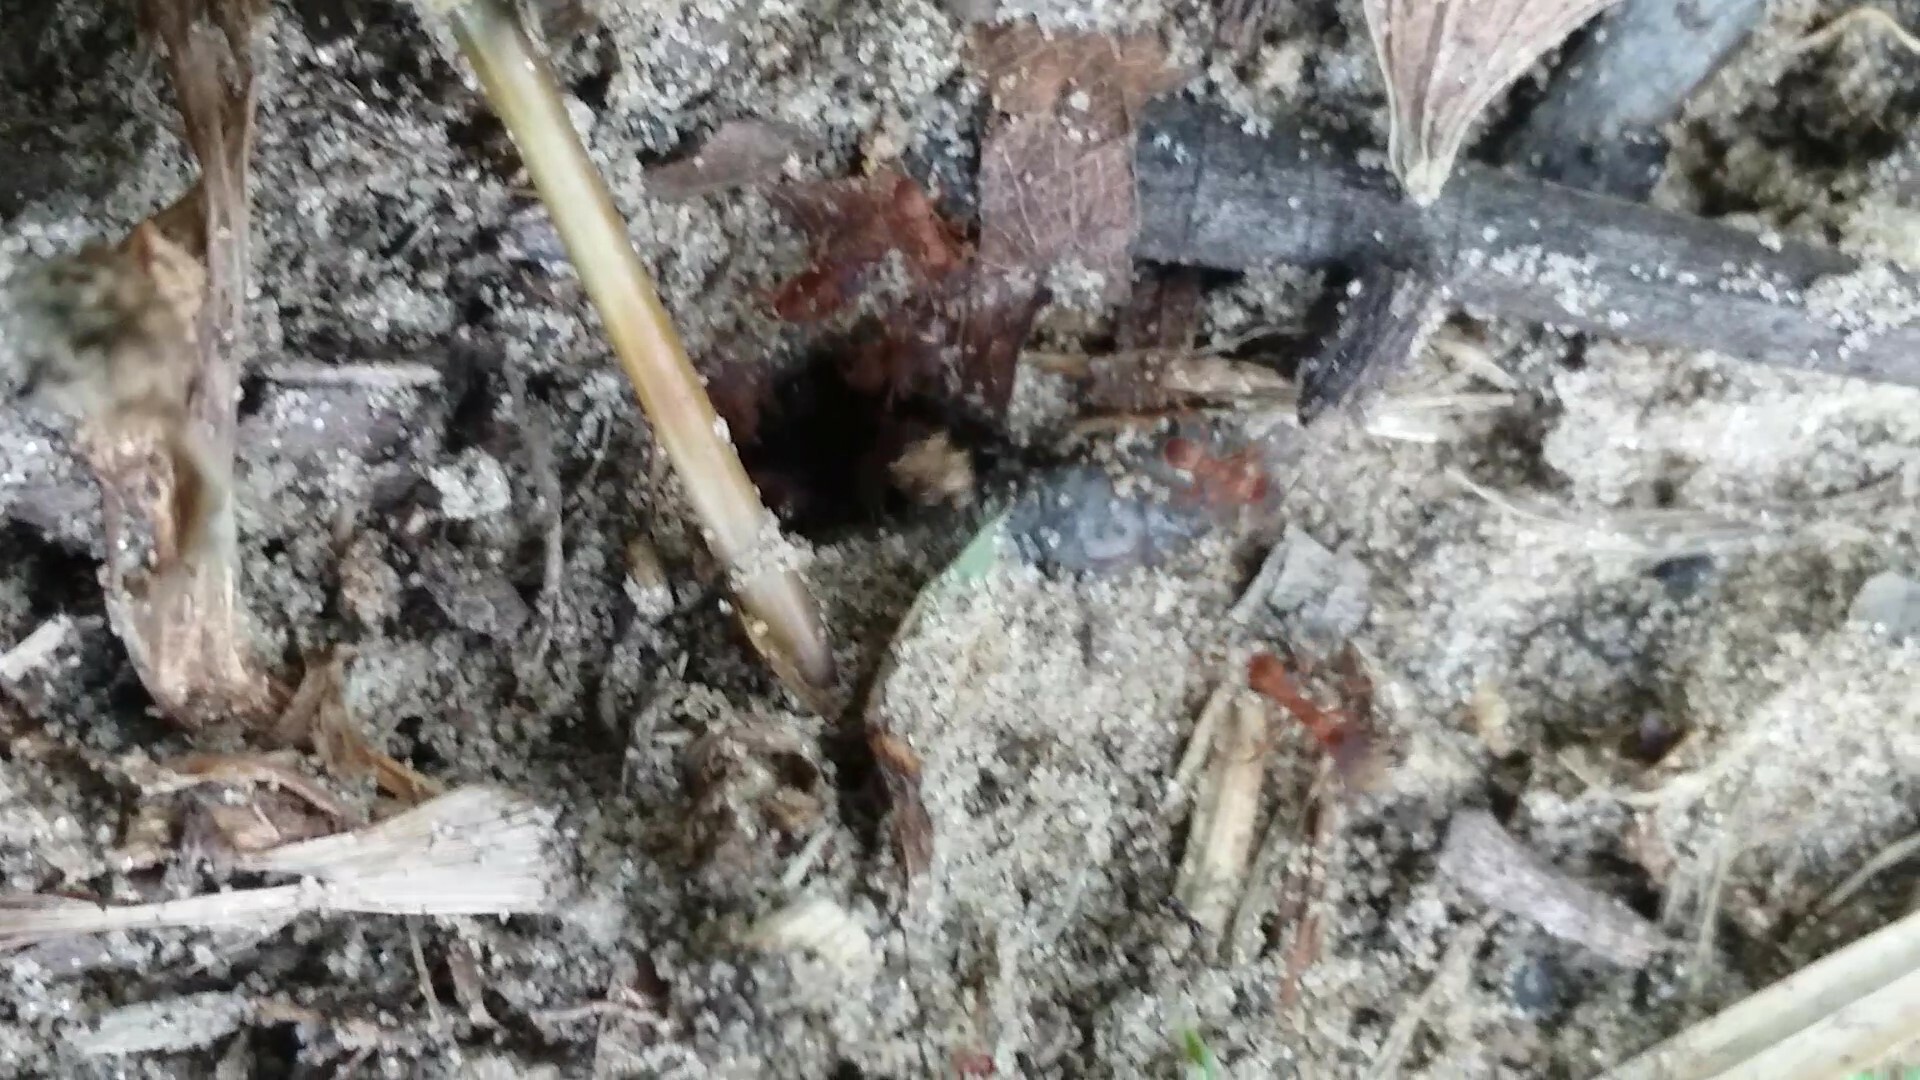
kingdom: Animalia
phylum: Arthropoda
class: Insecta
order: Hymenoptera
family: Formicidae
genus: Trachymyrmex
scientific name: Trachymyrmex septentrionalis
